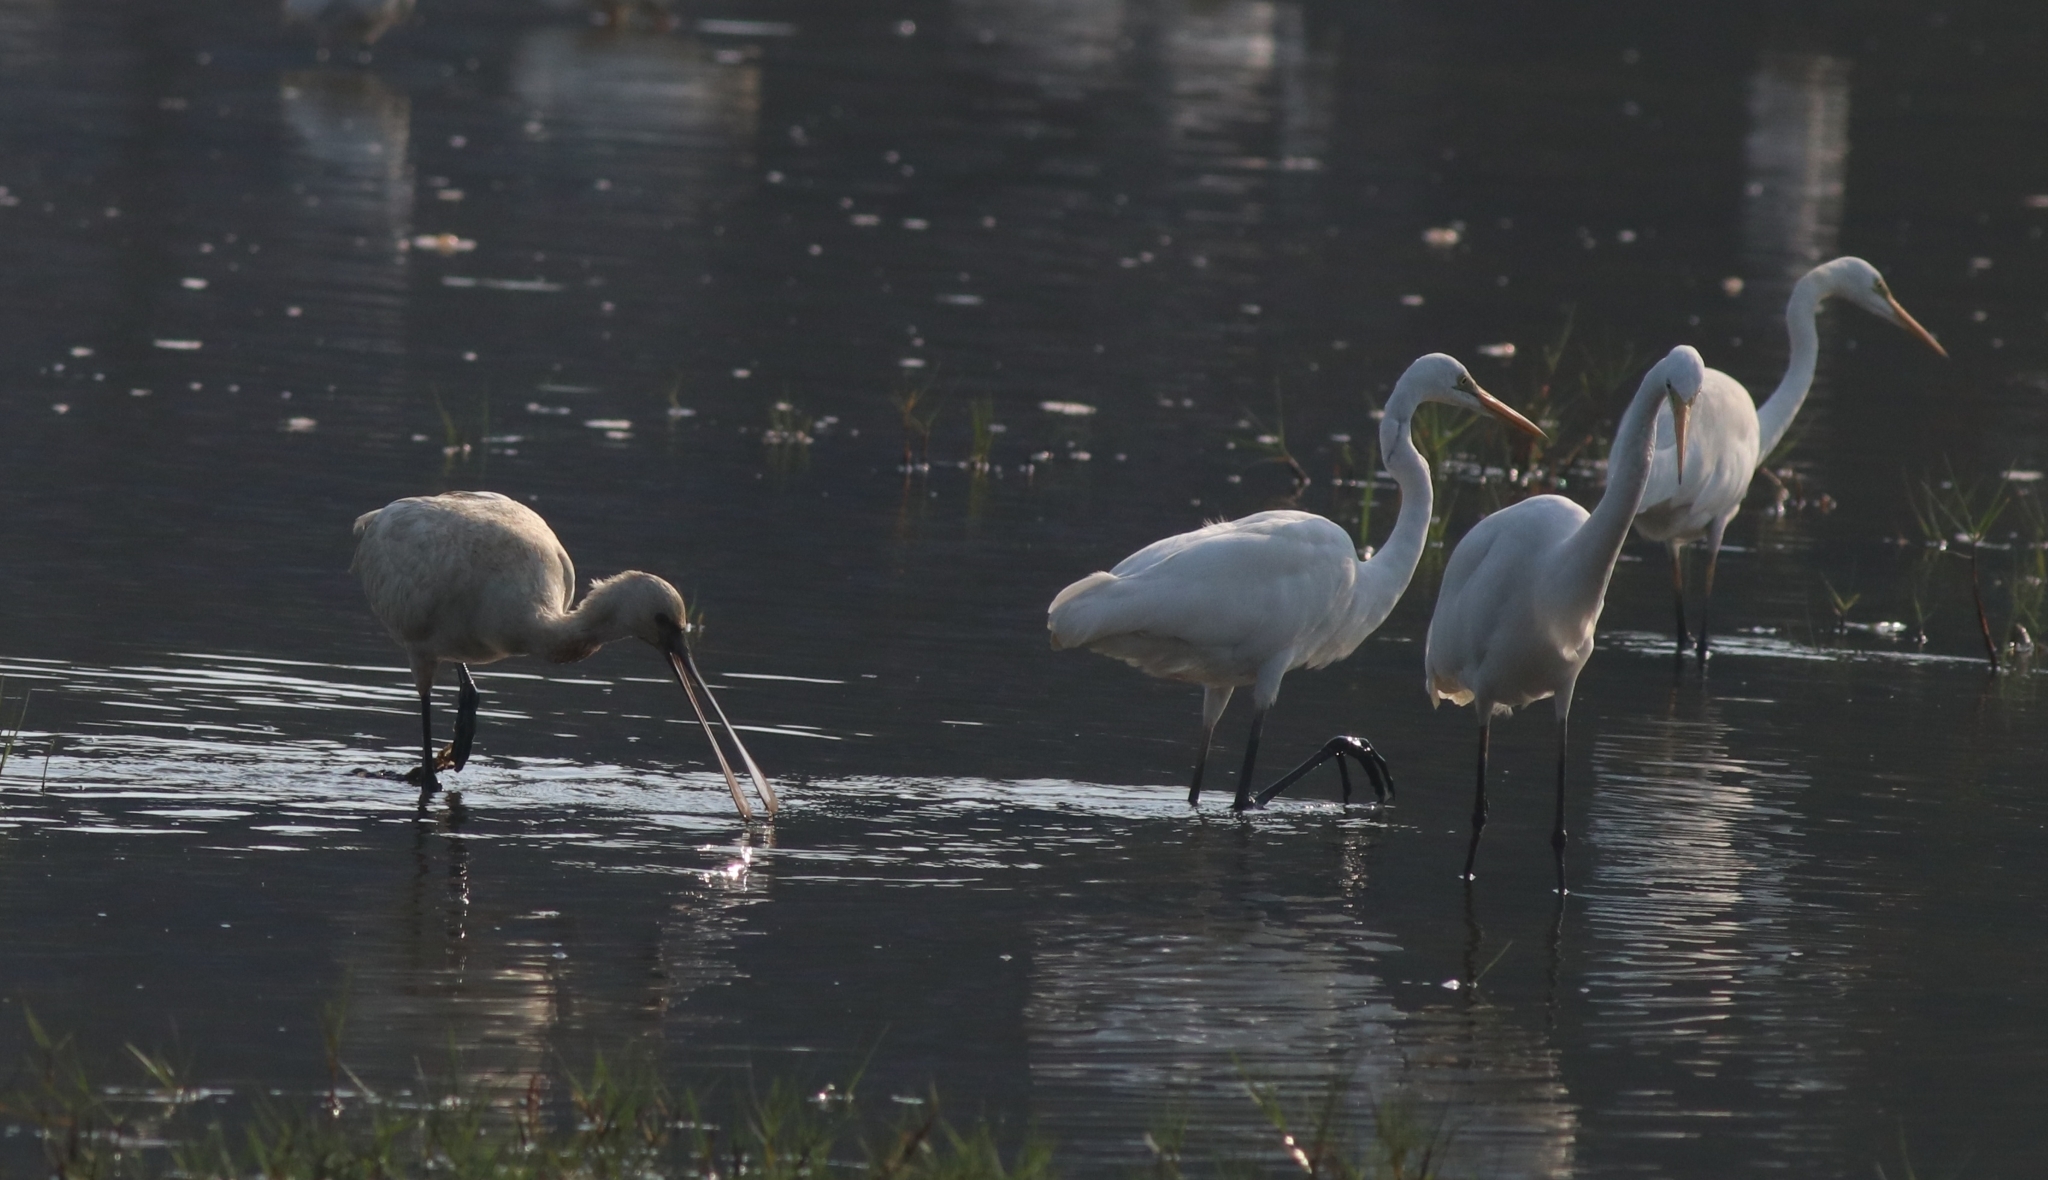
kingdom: Animalia
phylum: Chordata
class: Aves
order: Pelecaniformes
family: Ardeidae
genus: Ardea
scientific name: Ardea alba
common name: Great egret
